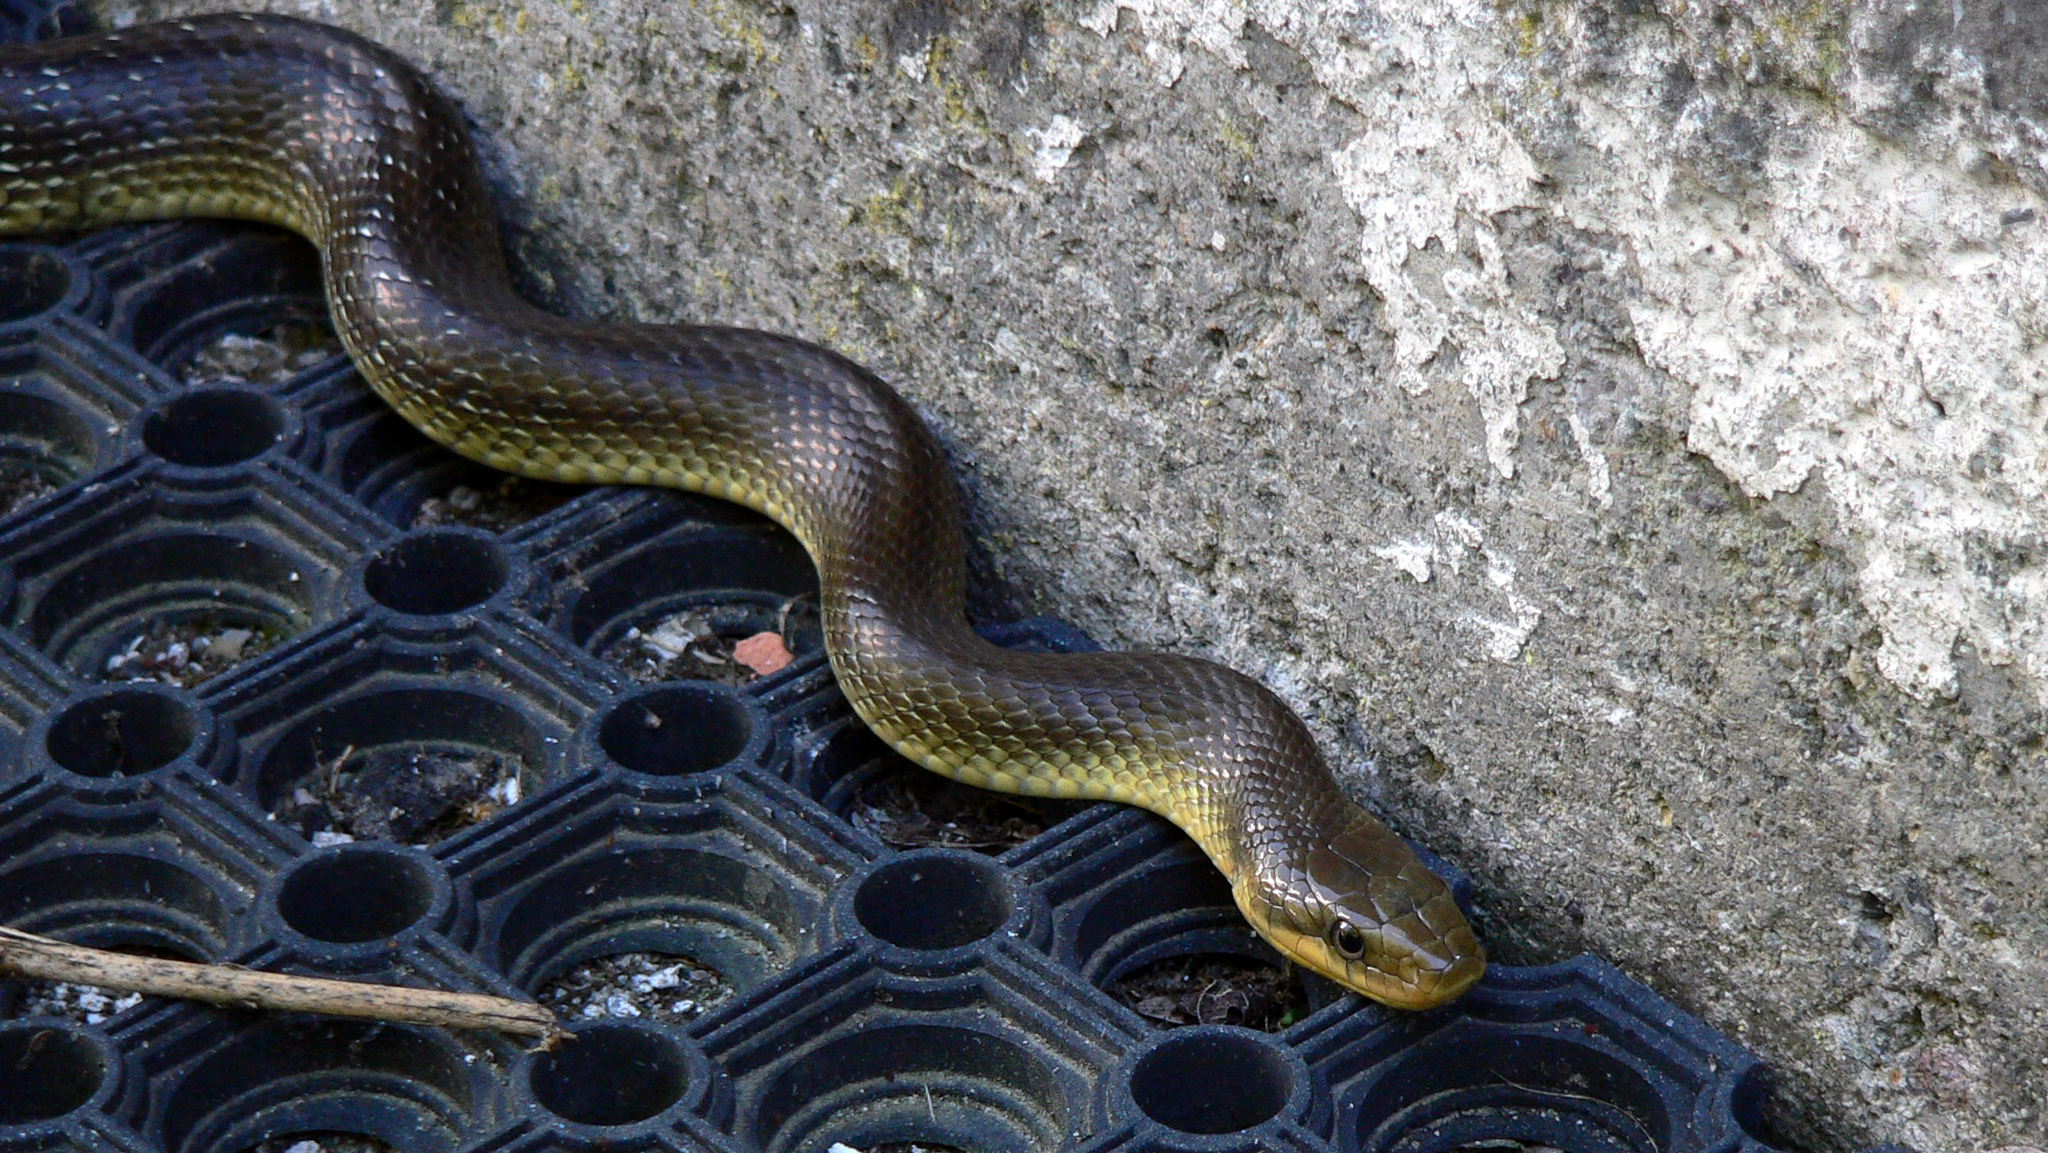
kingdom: Animalia
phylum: Chordata
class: Squamata
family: Colubridae
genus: Zamenis
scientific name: Zamenis longissimus
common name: Aesculapean snake
